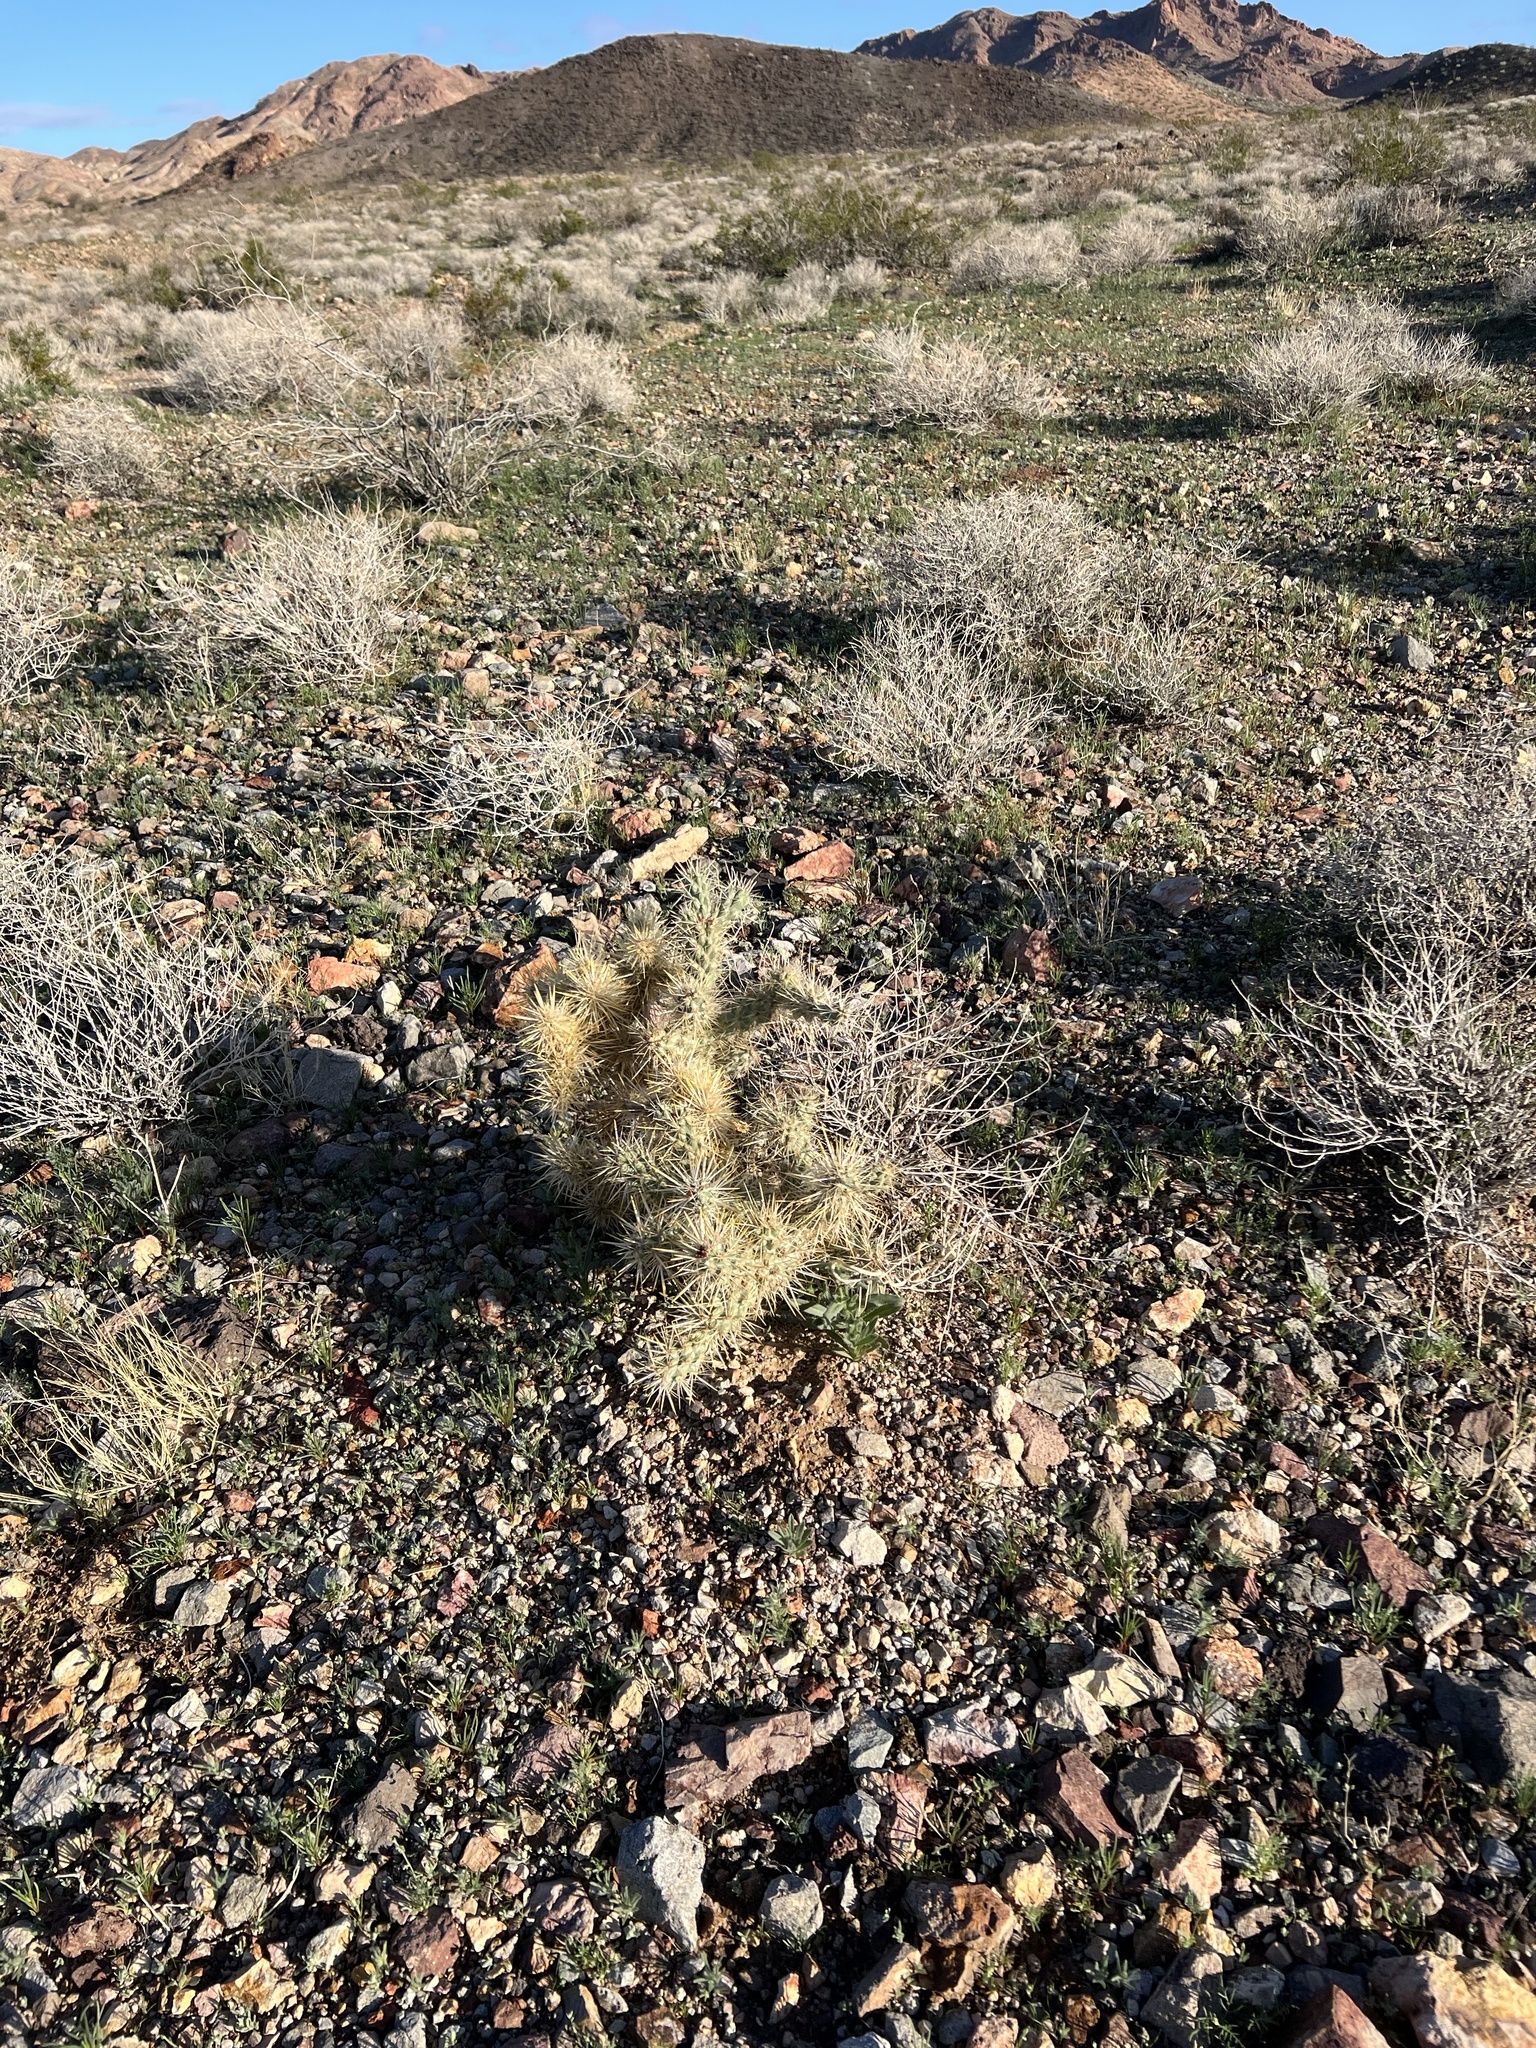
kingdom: Plantae
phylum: Tracheophyta
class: Magnoliopsida
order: Caryophyllales
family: Cactaceae
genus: Cylindropuntia
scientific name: Cylindropuntia echinocarpa
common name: Ground cholla
